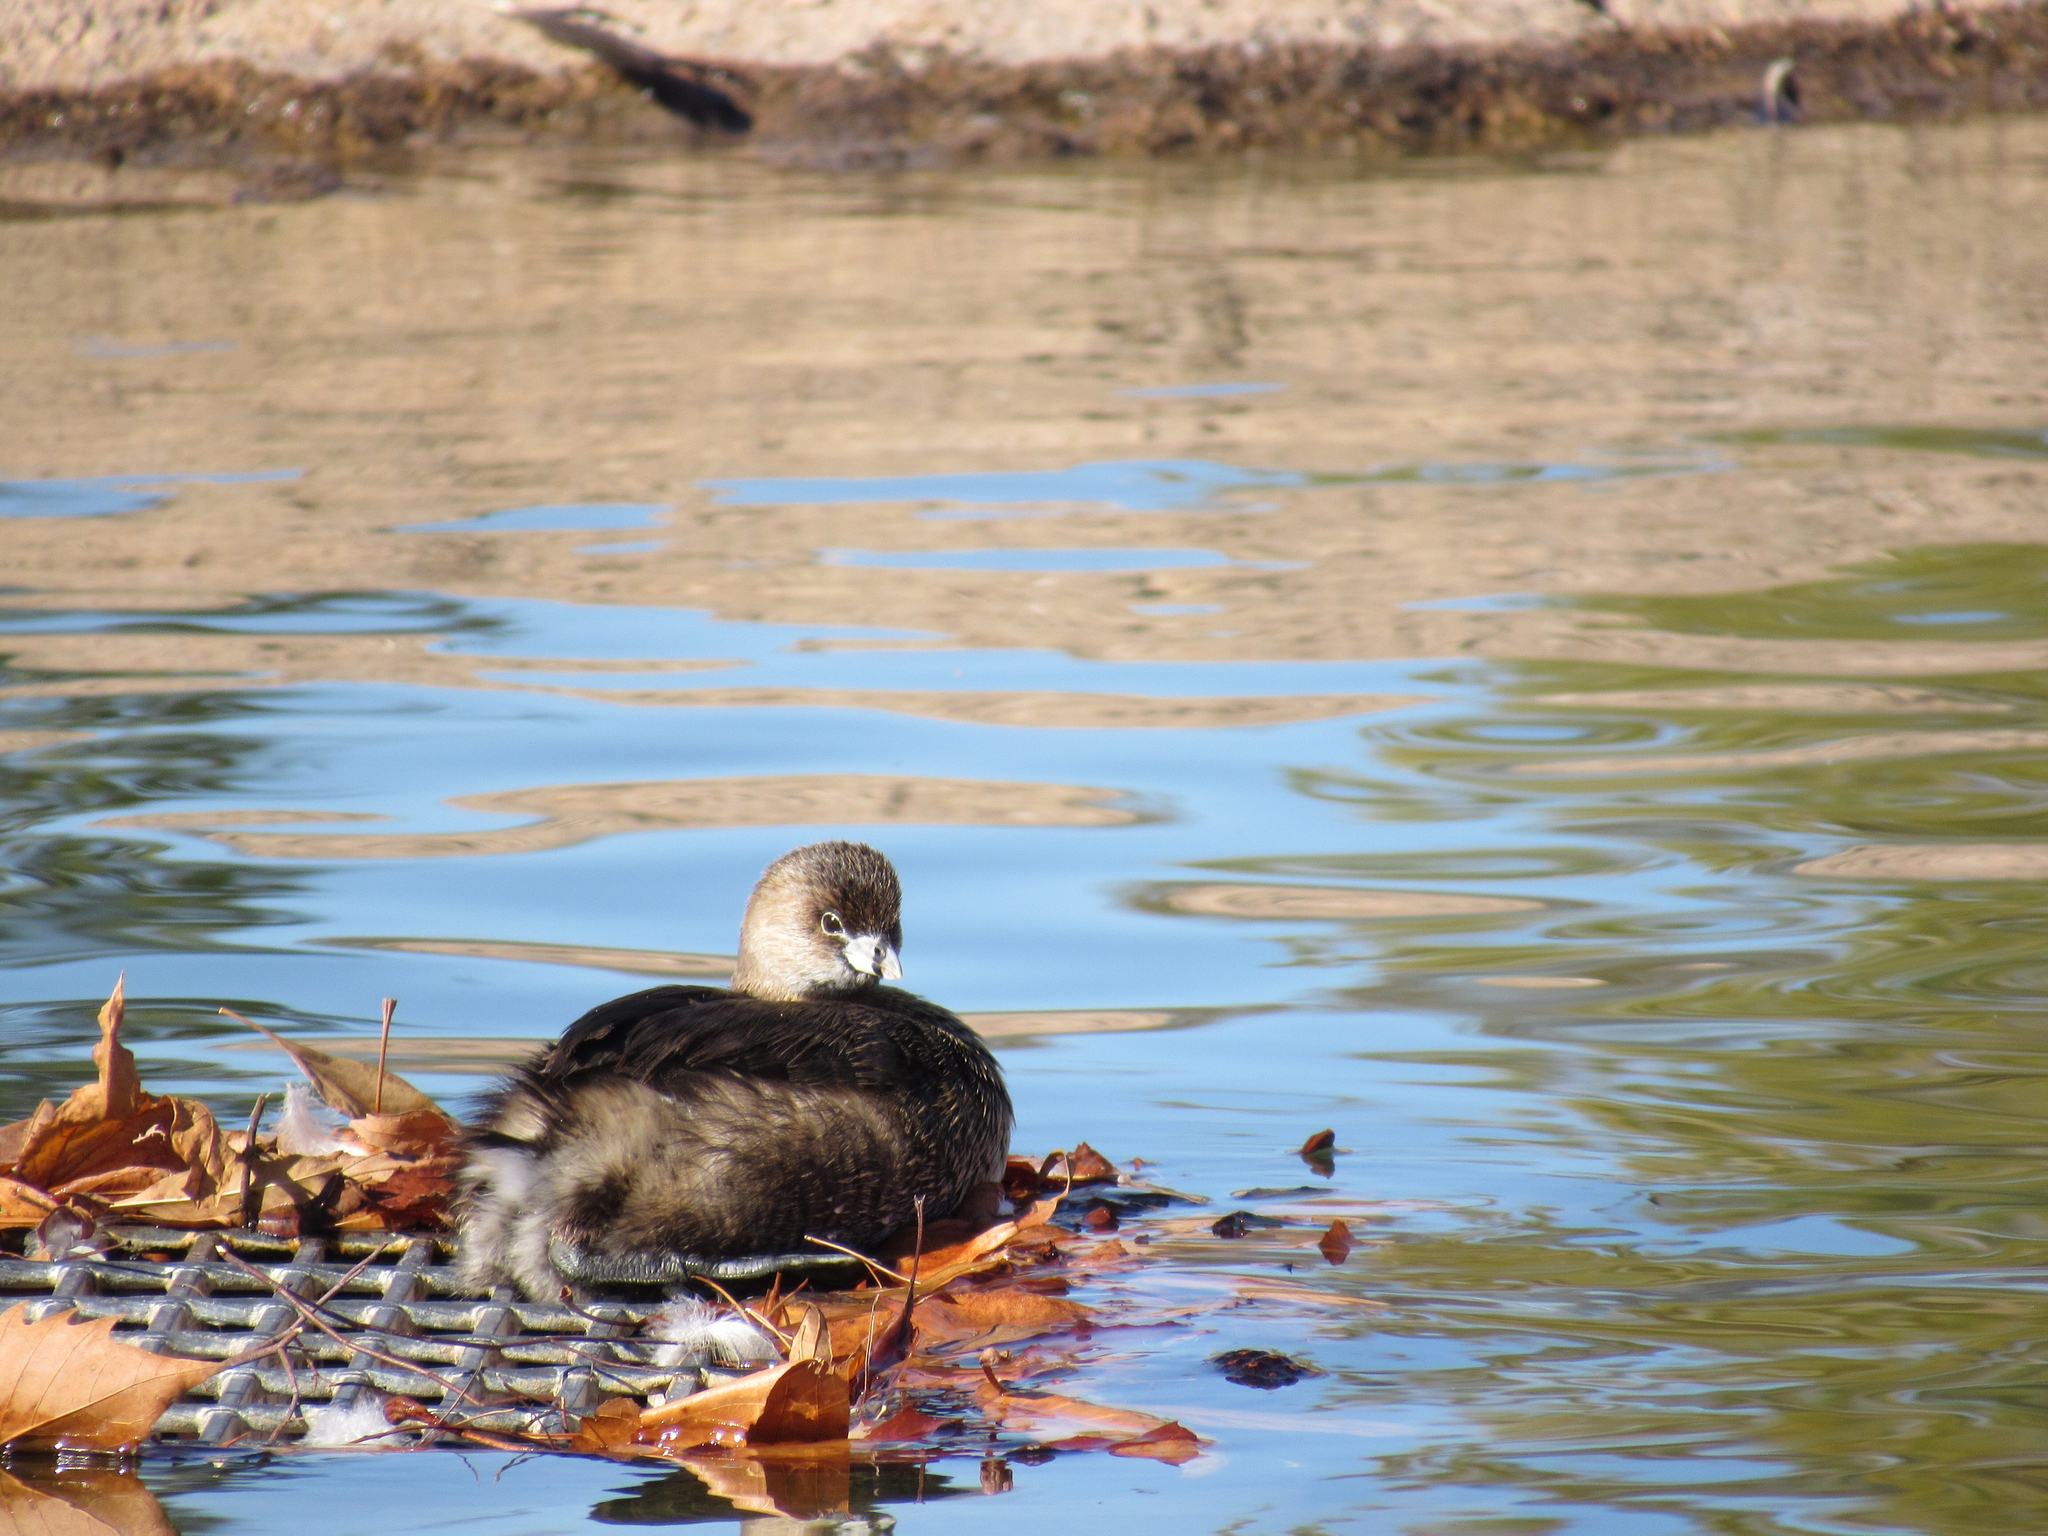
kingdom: Animalia
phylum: Chordata
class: Aves
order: Podicipediformes
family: Podicipedidae
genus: Podilymbus
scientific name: Podilymbus podiceps
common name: Pied-billed grebe
